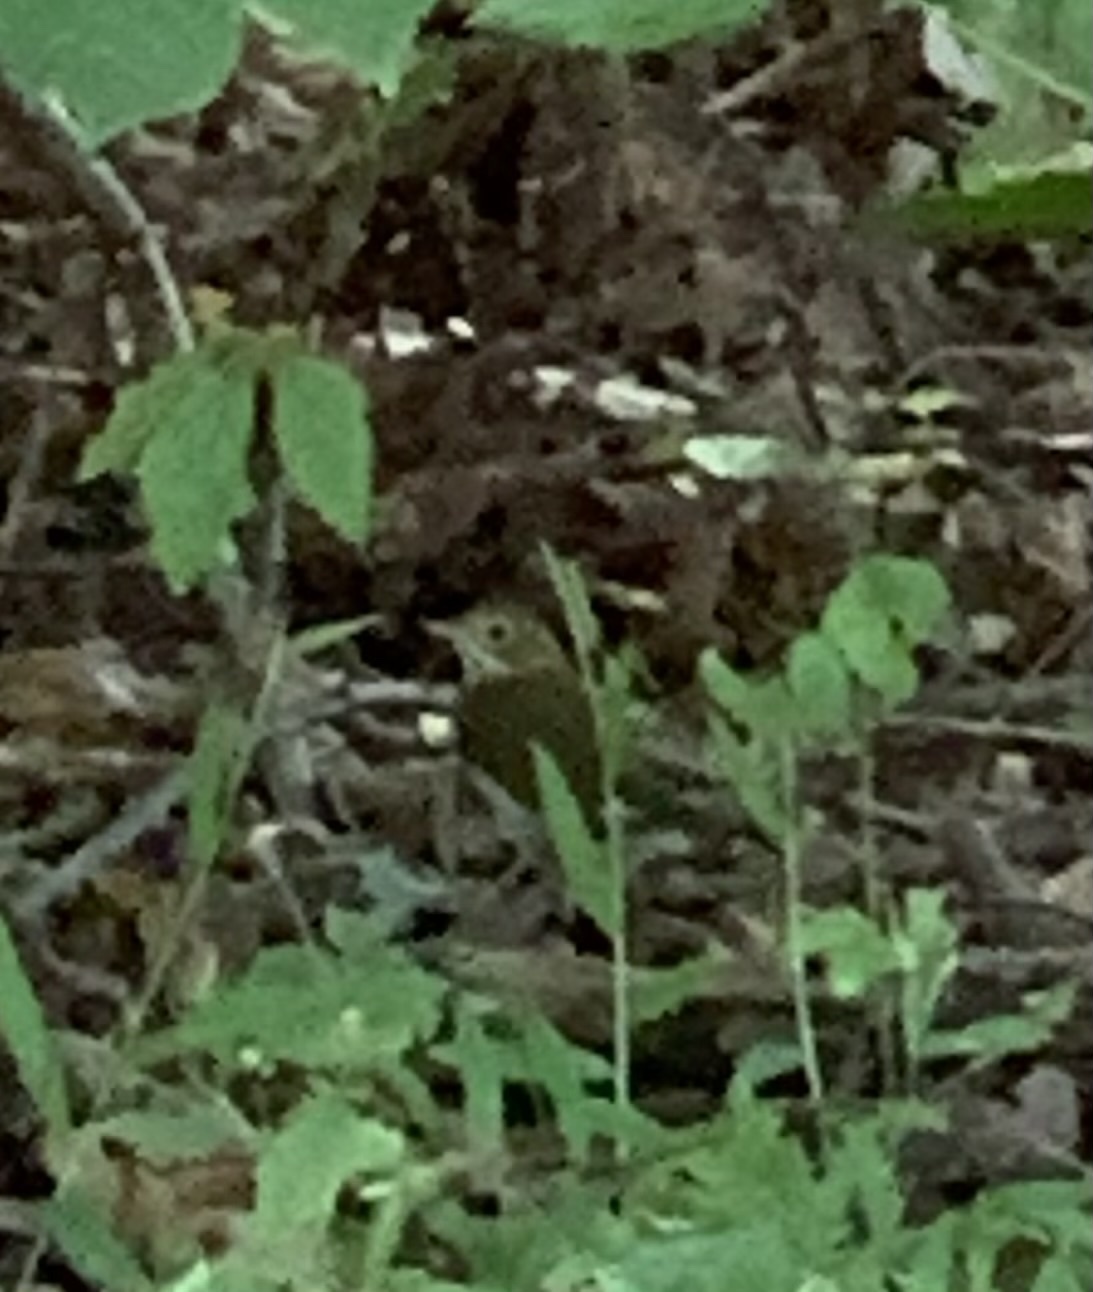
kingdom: Animalia
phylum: Chordata
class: Aves
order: Passeriformes
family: Parulidae
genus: Seiurus
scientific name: Seiurus aurocapilla
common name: Ovenbird
